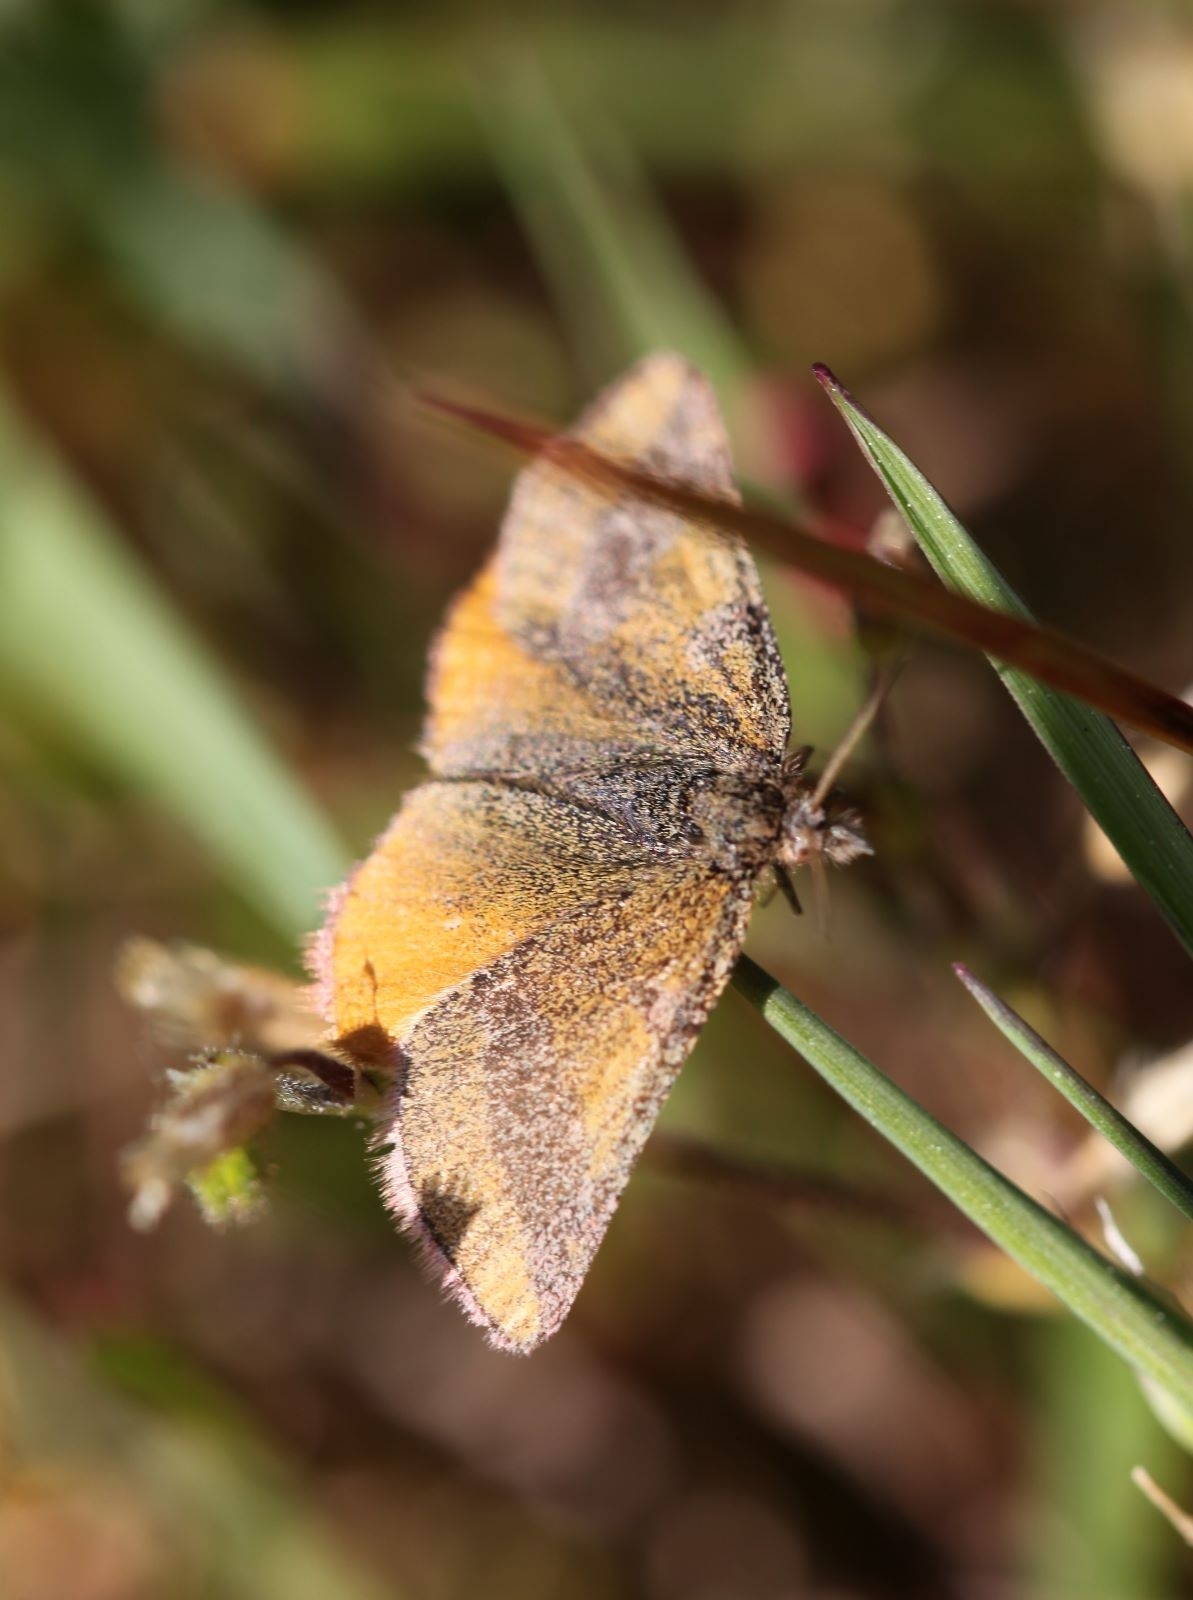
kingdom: Animalia
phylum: Arthropoda
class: Insecta
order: Lepidoptera
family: Geometridae
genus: Lythria
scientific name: Lythria cruentaria
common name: Purple-barred yellow
